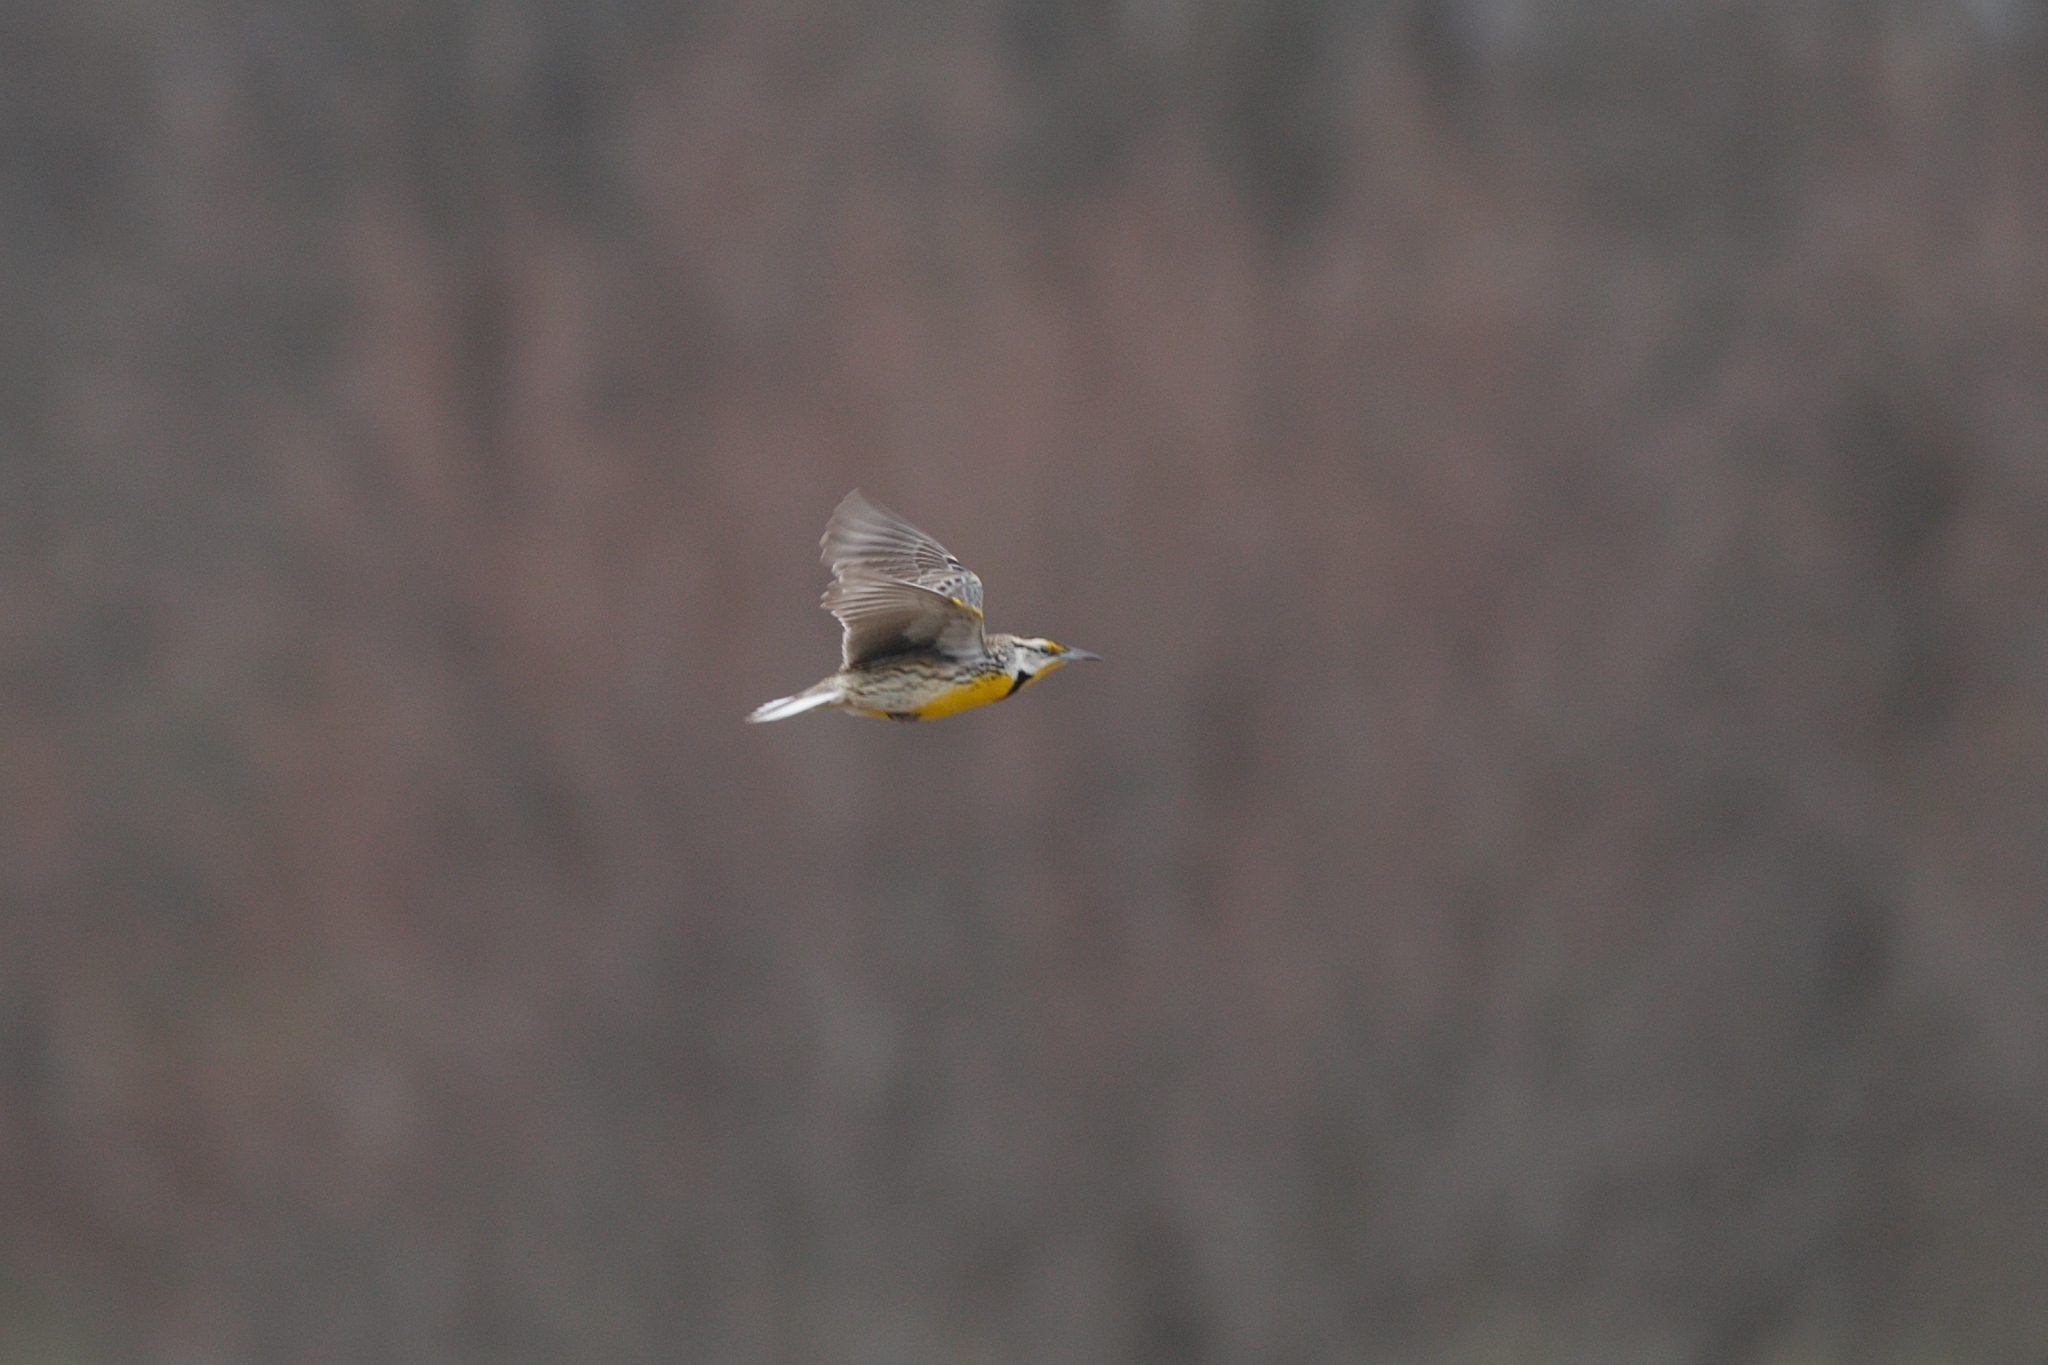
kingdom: Animalia
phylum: Chordata
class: Aves
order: Passeriformes
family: Icteridae
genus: Sturnella
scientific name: Sturnella magna
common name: Eastern meadowlark
